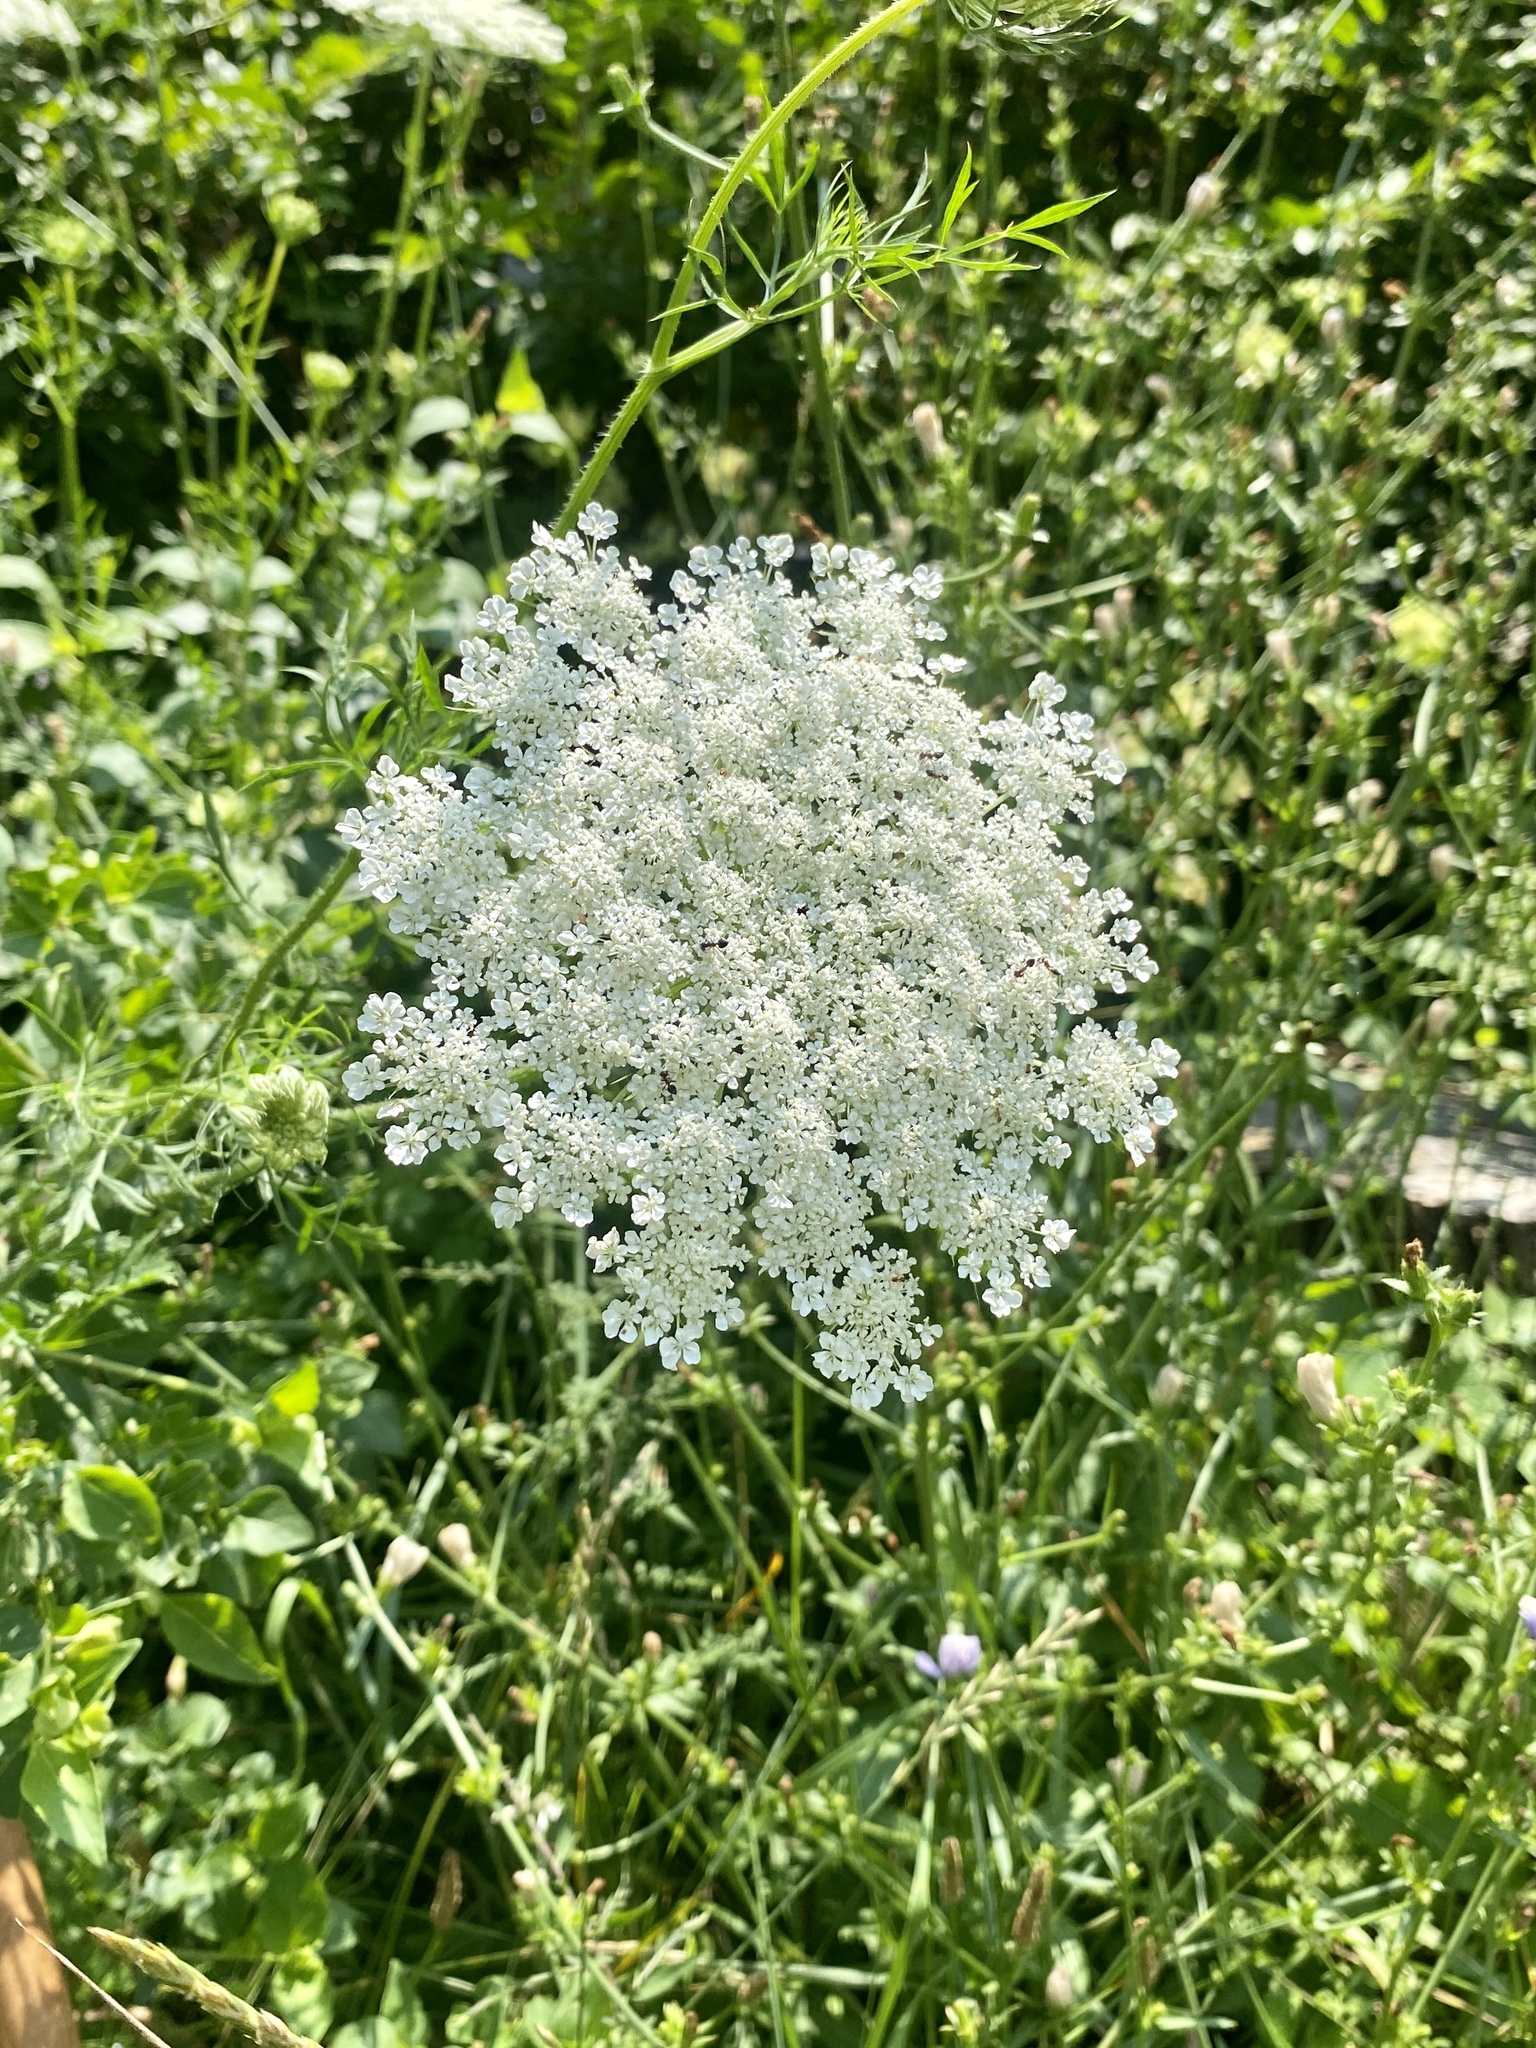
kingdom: Plantae
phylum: Tracheophyta
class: Magnoliopsida
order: Apiales
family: Apiaceae
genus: Daucus
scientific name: Daucus carota
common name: Wild carrot
